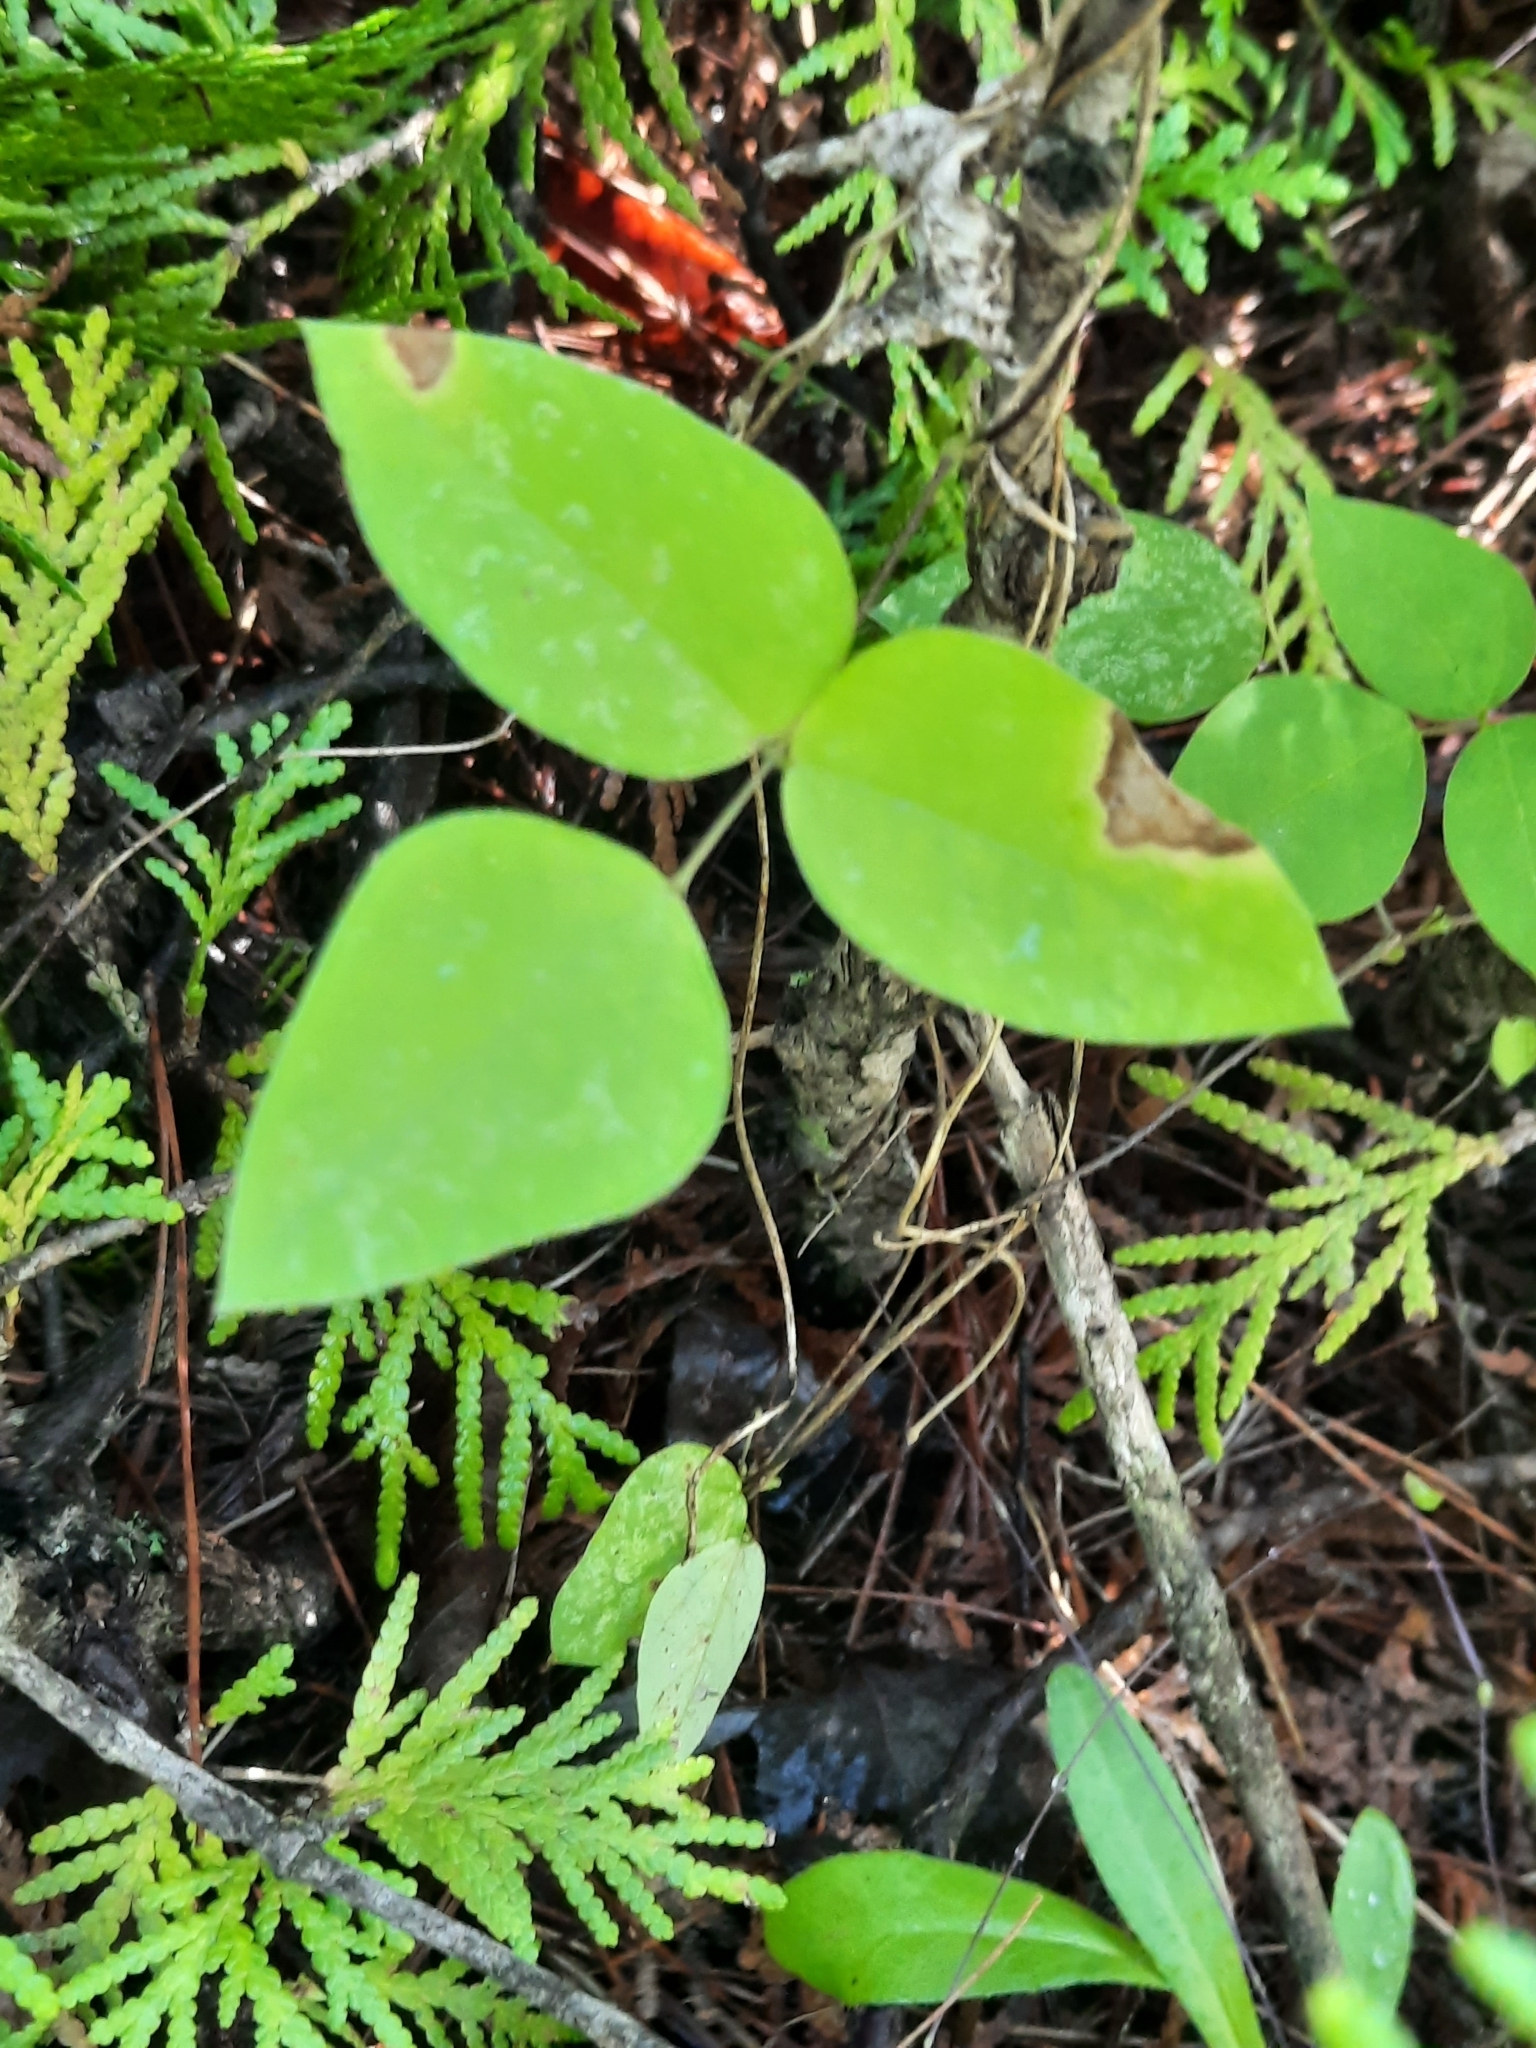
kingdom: Plantae
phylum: Tracheophyta
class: Magnoliopsida
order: Fabales
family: Fabaceae
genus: Amphicarpaea
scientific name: Amphicarpaea bracteata
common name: American hog peanut
